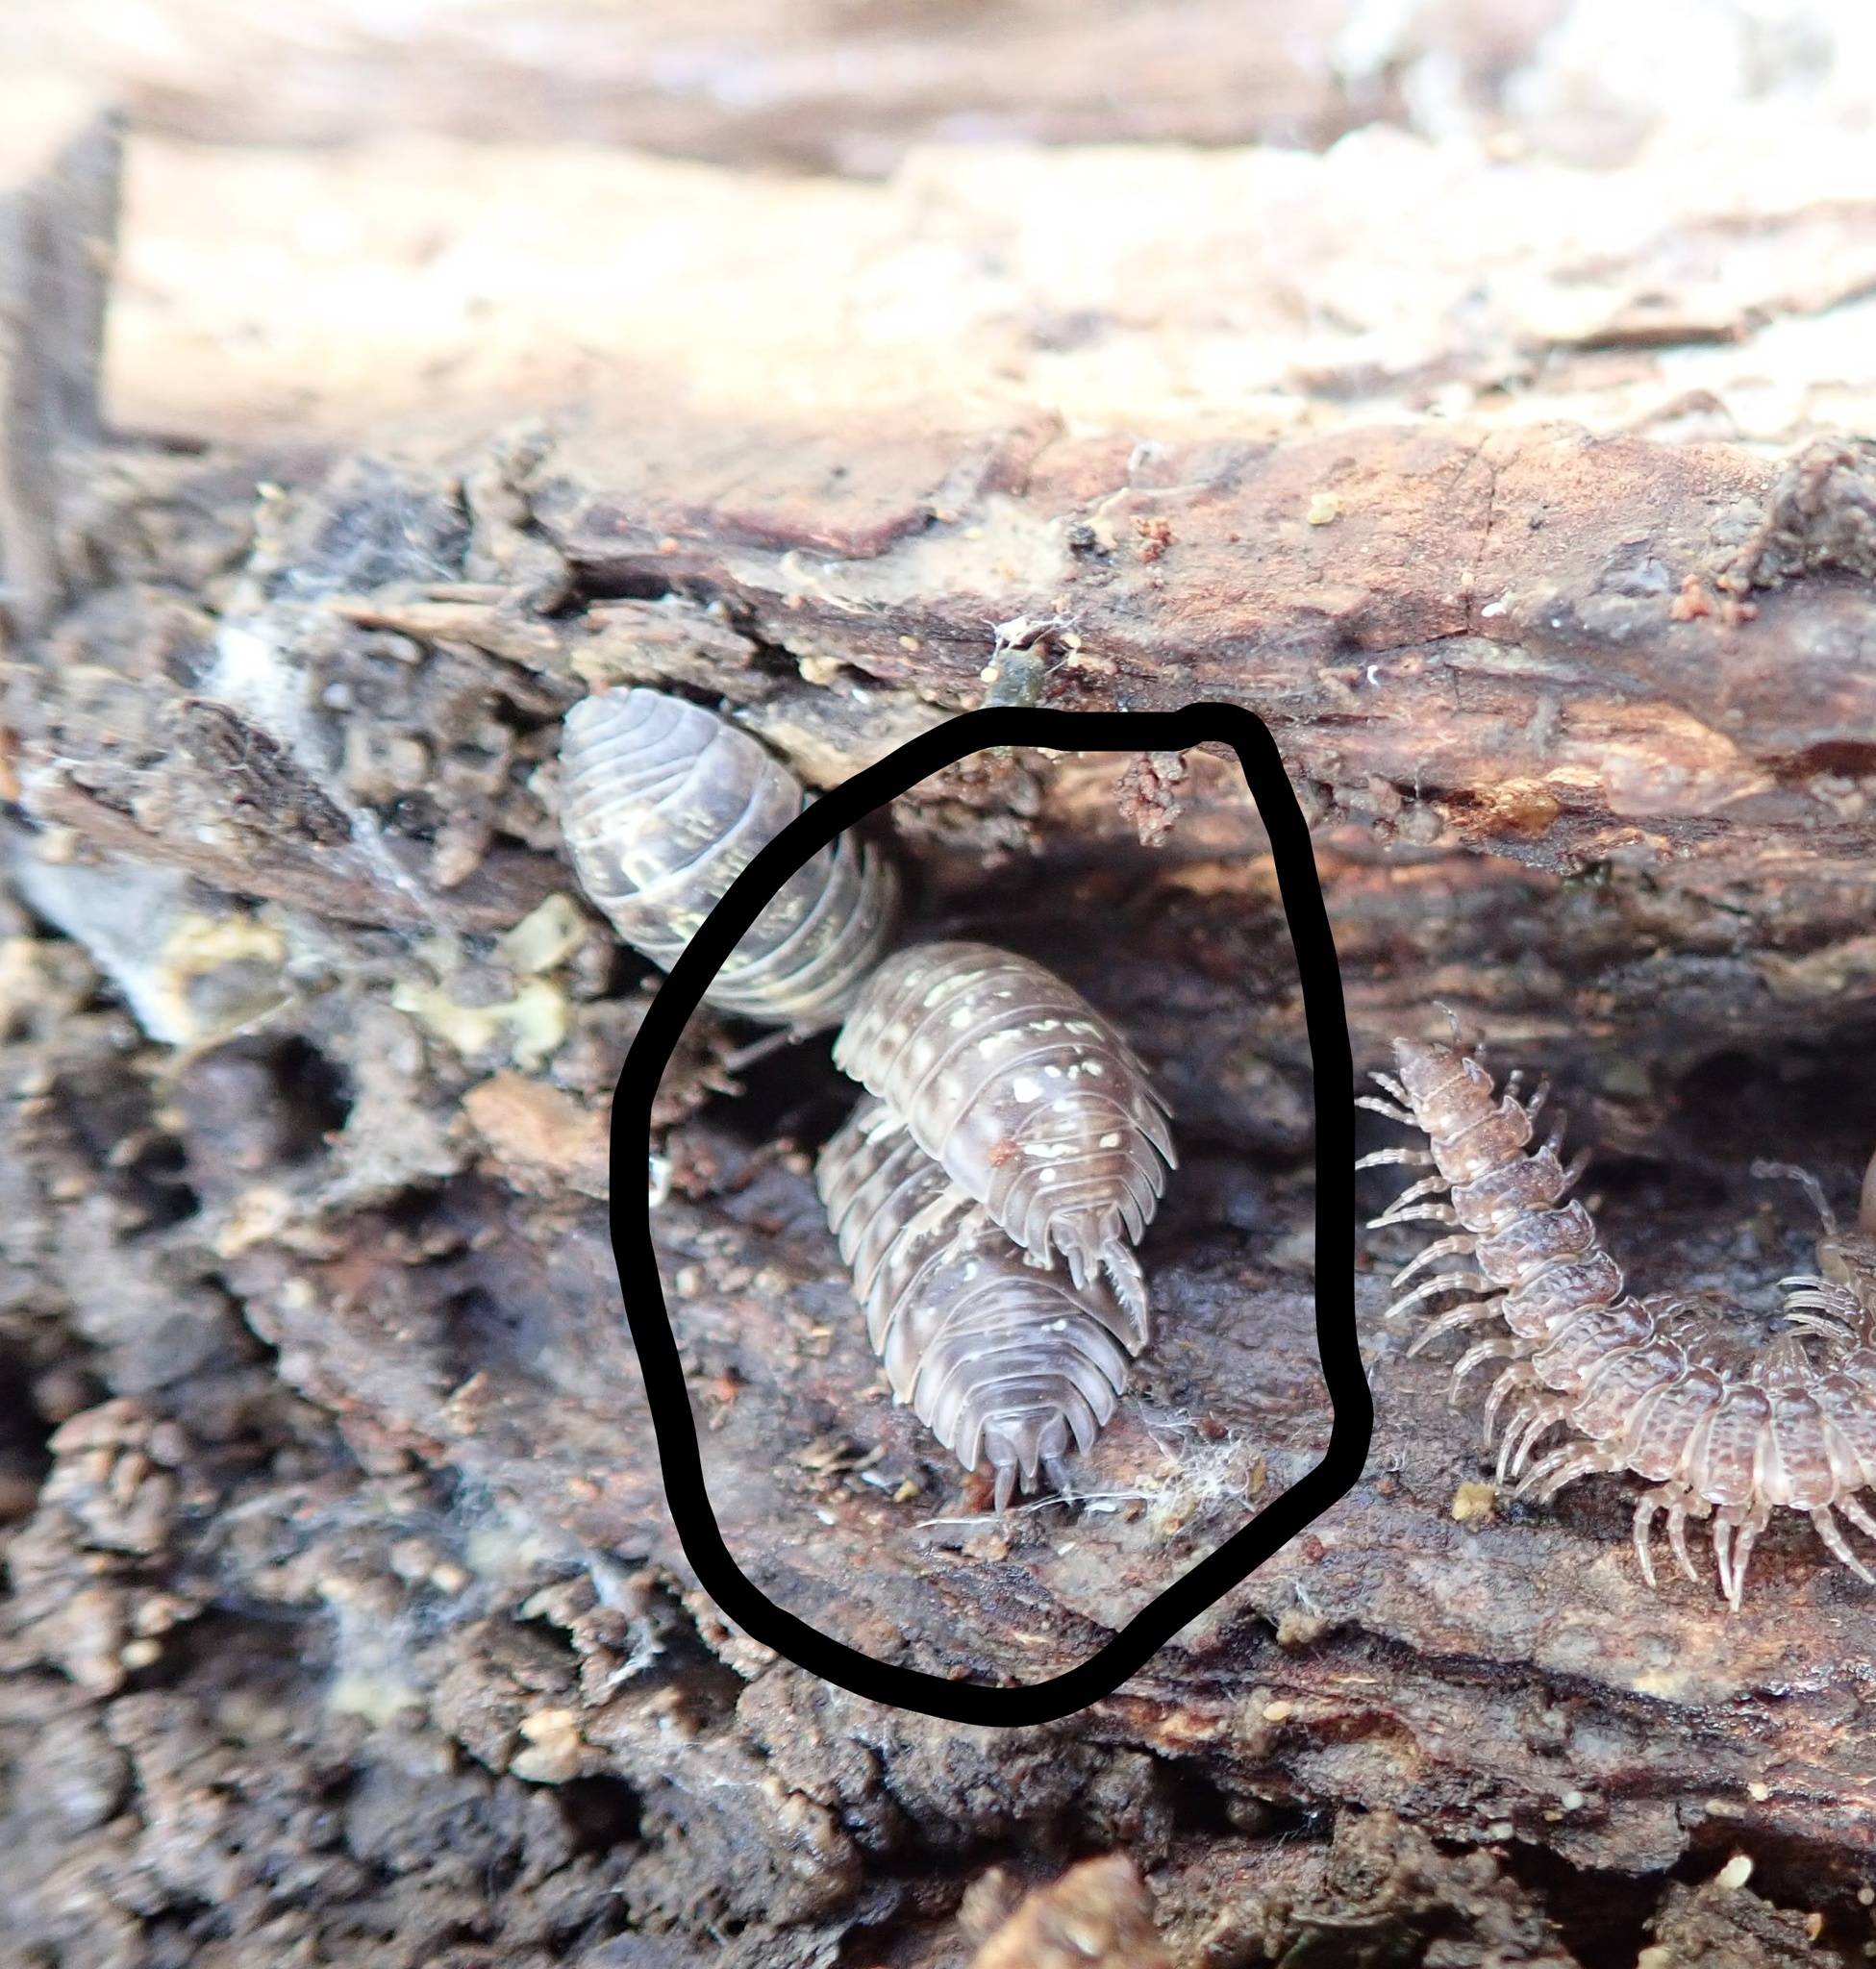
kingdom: Animalia
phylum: Arthropoda
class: Malacostraca
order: Isopoda
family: Oniscidae
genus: Oniscus
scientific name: Oniscus asellus
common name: Common shiny woodlouse
